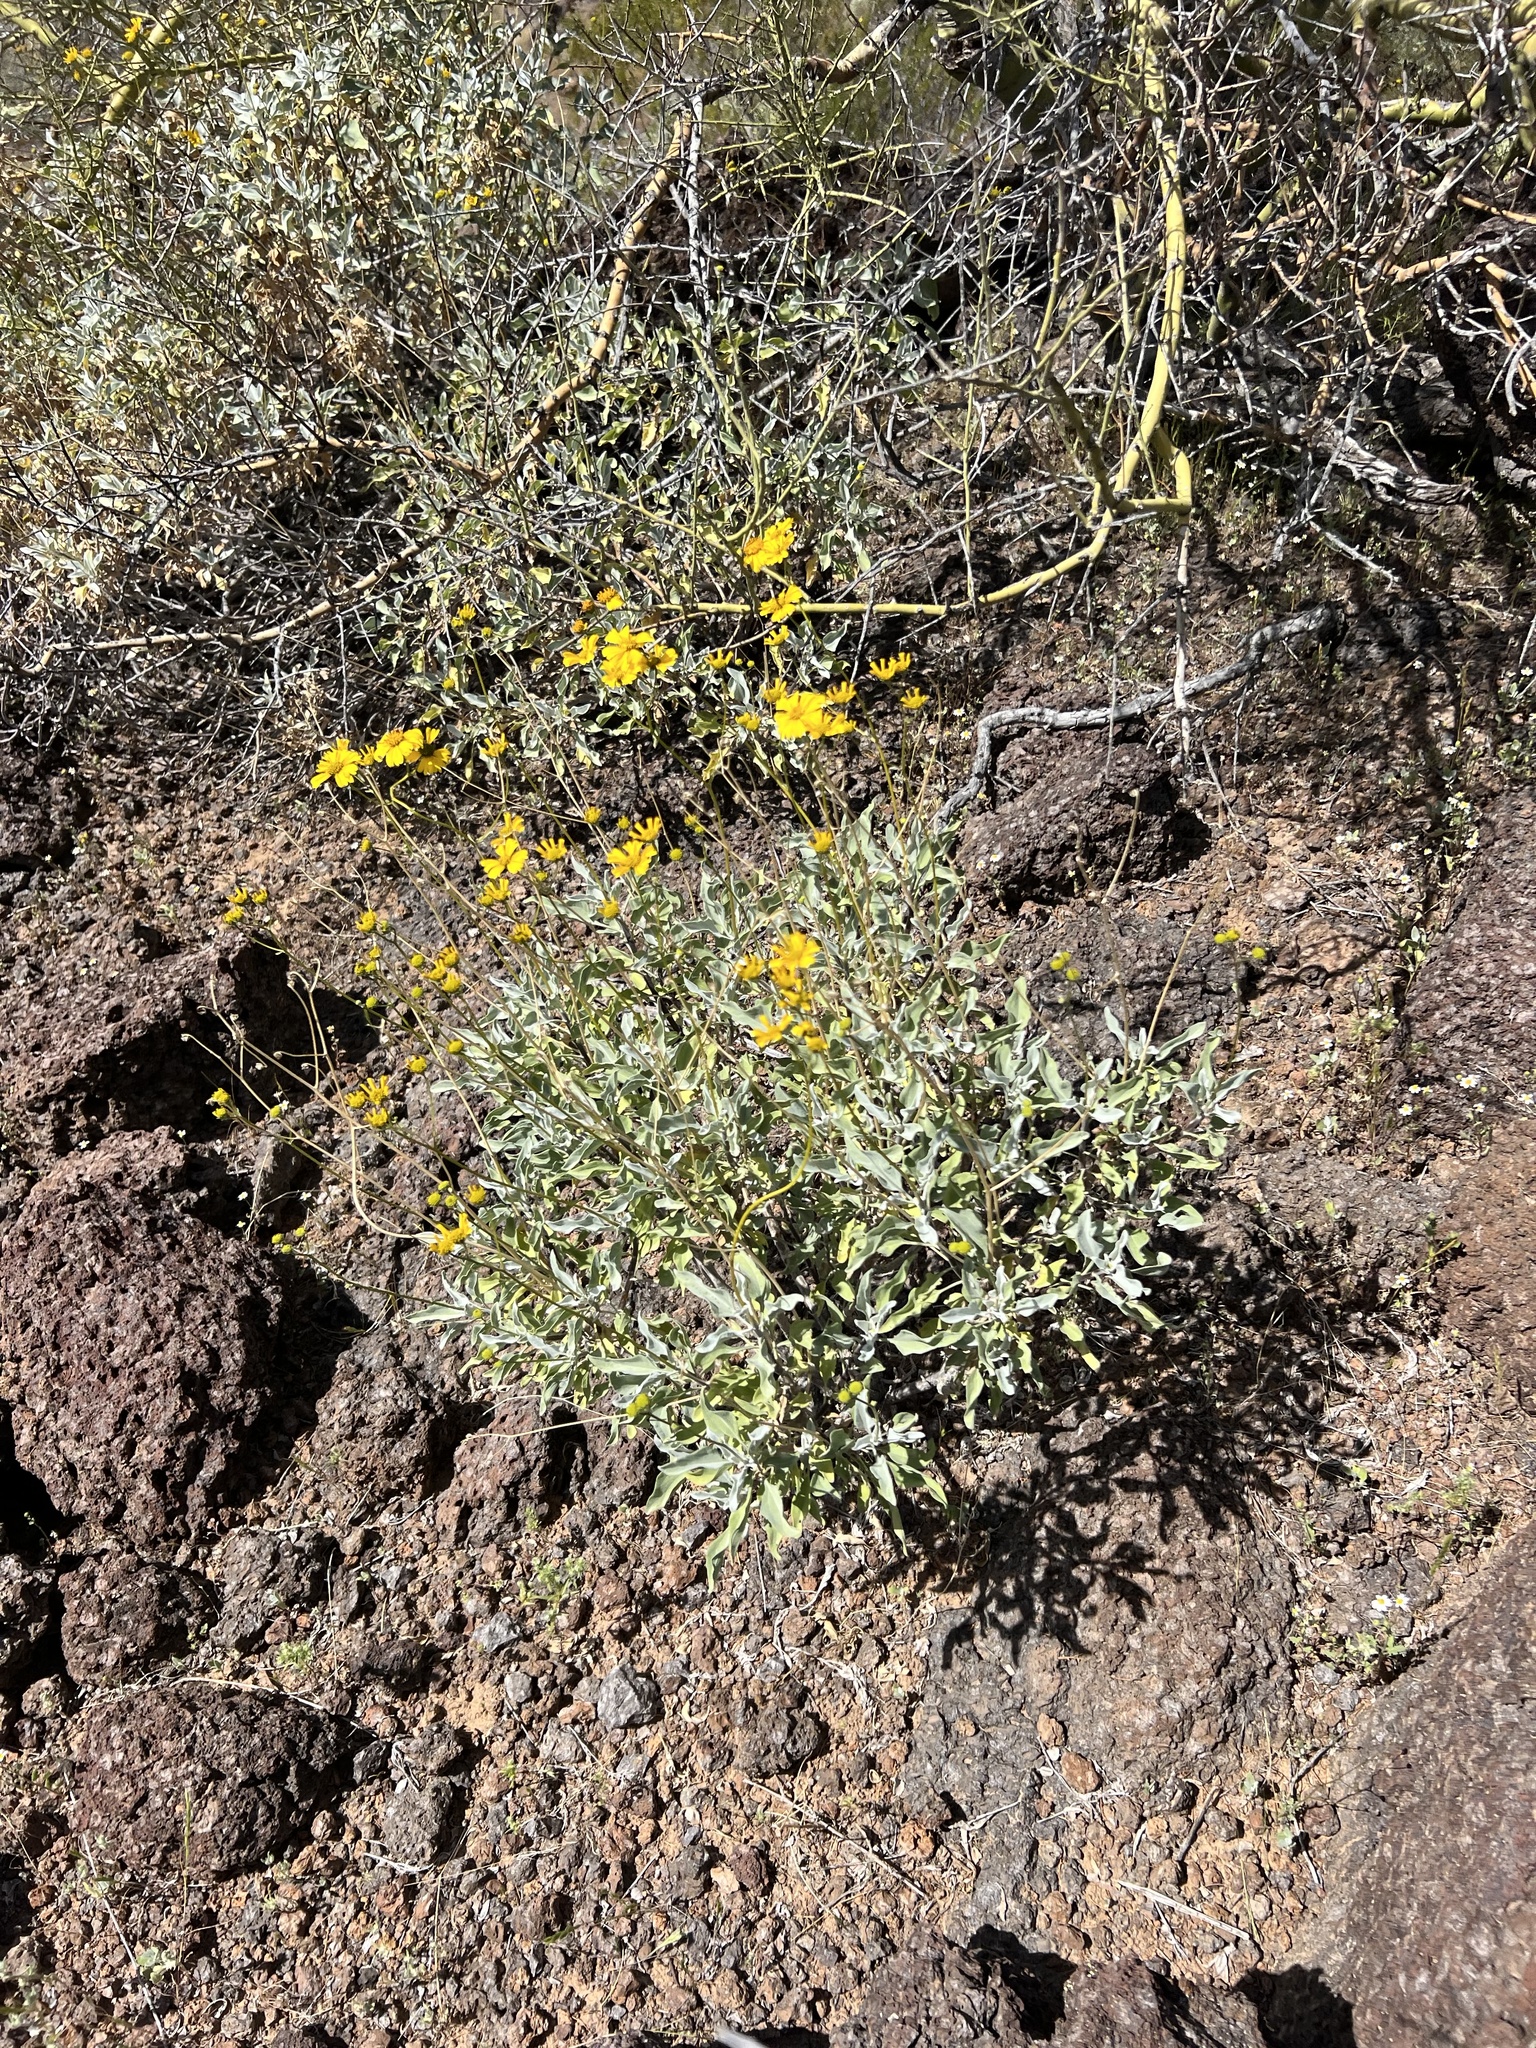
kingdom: Plantae
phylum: Tracheophyta
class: Magnoliopsida
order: Asterales
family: Asteraceae
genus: Encelia
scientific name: Encelia farinosa
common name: Brittlebush
